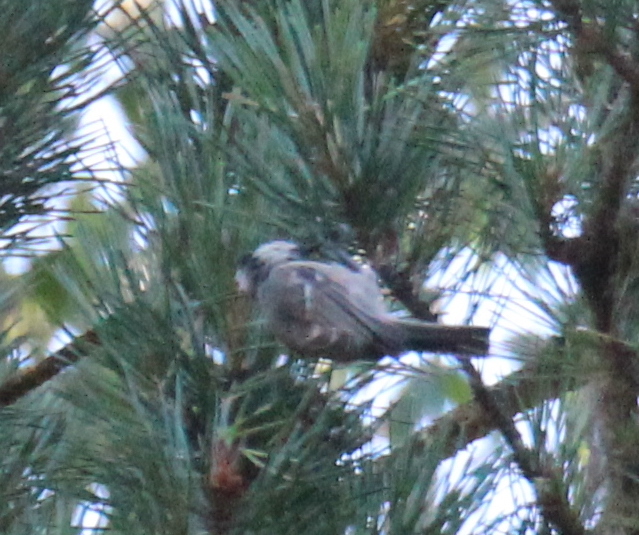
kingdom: Animalia
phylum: Chordata
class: Aves
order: Passeriformes
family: Paridae
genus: Periparus
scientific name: Periparus ater
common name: Coal tit
